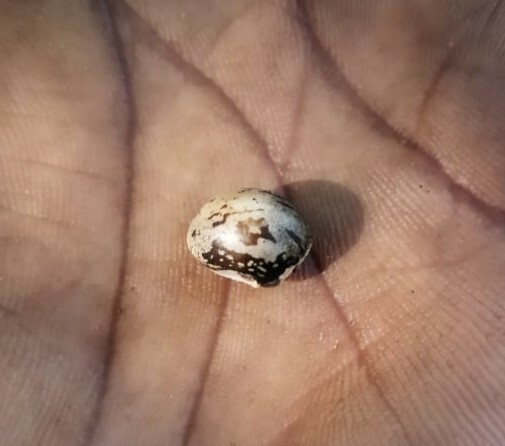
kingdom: Plantae
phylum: Tracheophyta
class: Magnoliopsida
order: Malpighiales
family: Euphorbiaceae
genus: Ricinus
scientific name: Ricinus communis
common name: Castor-oil-plant
